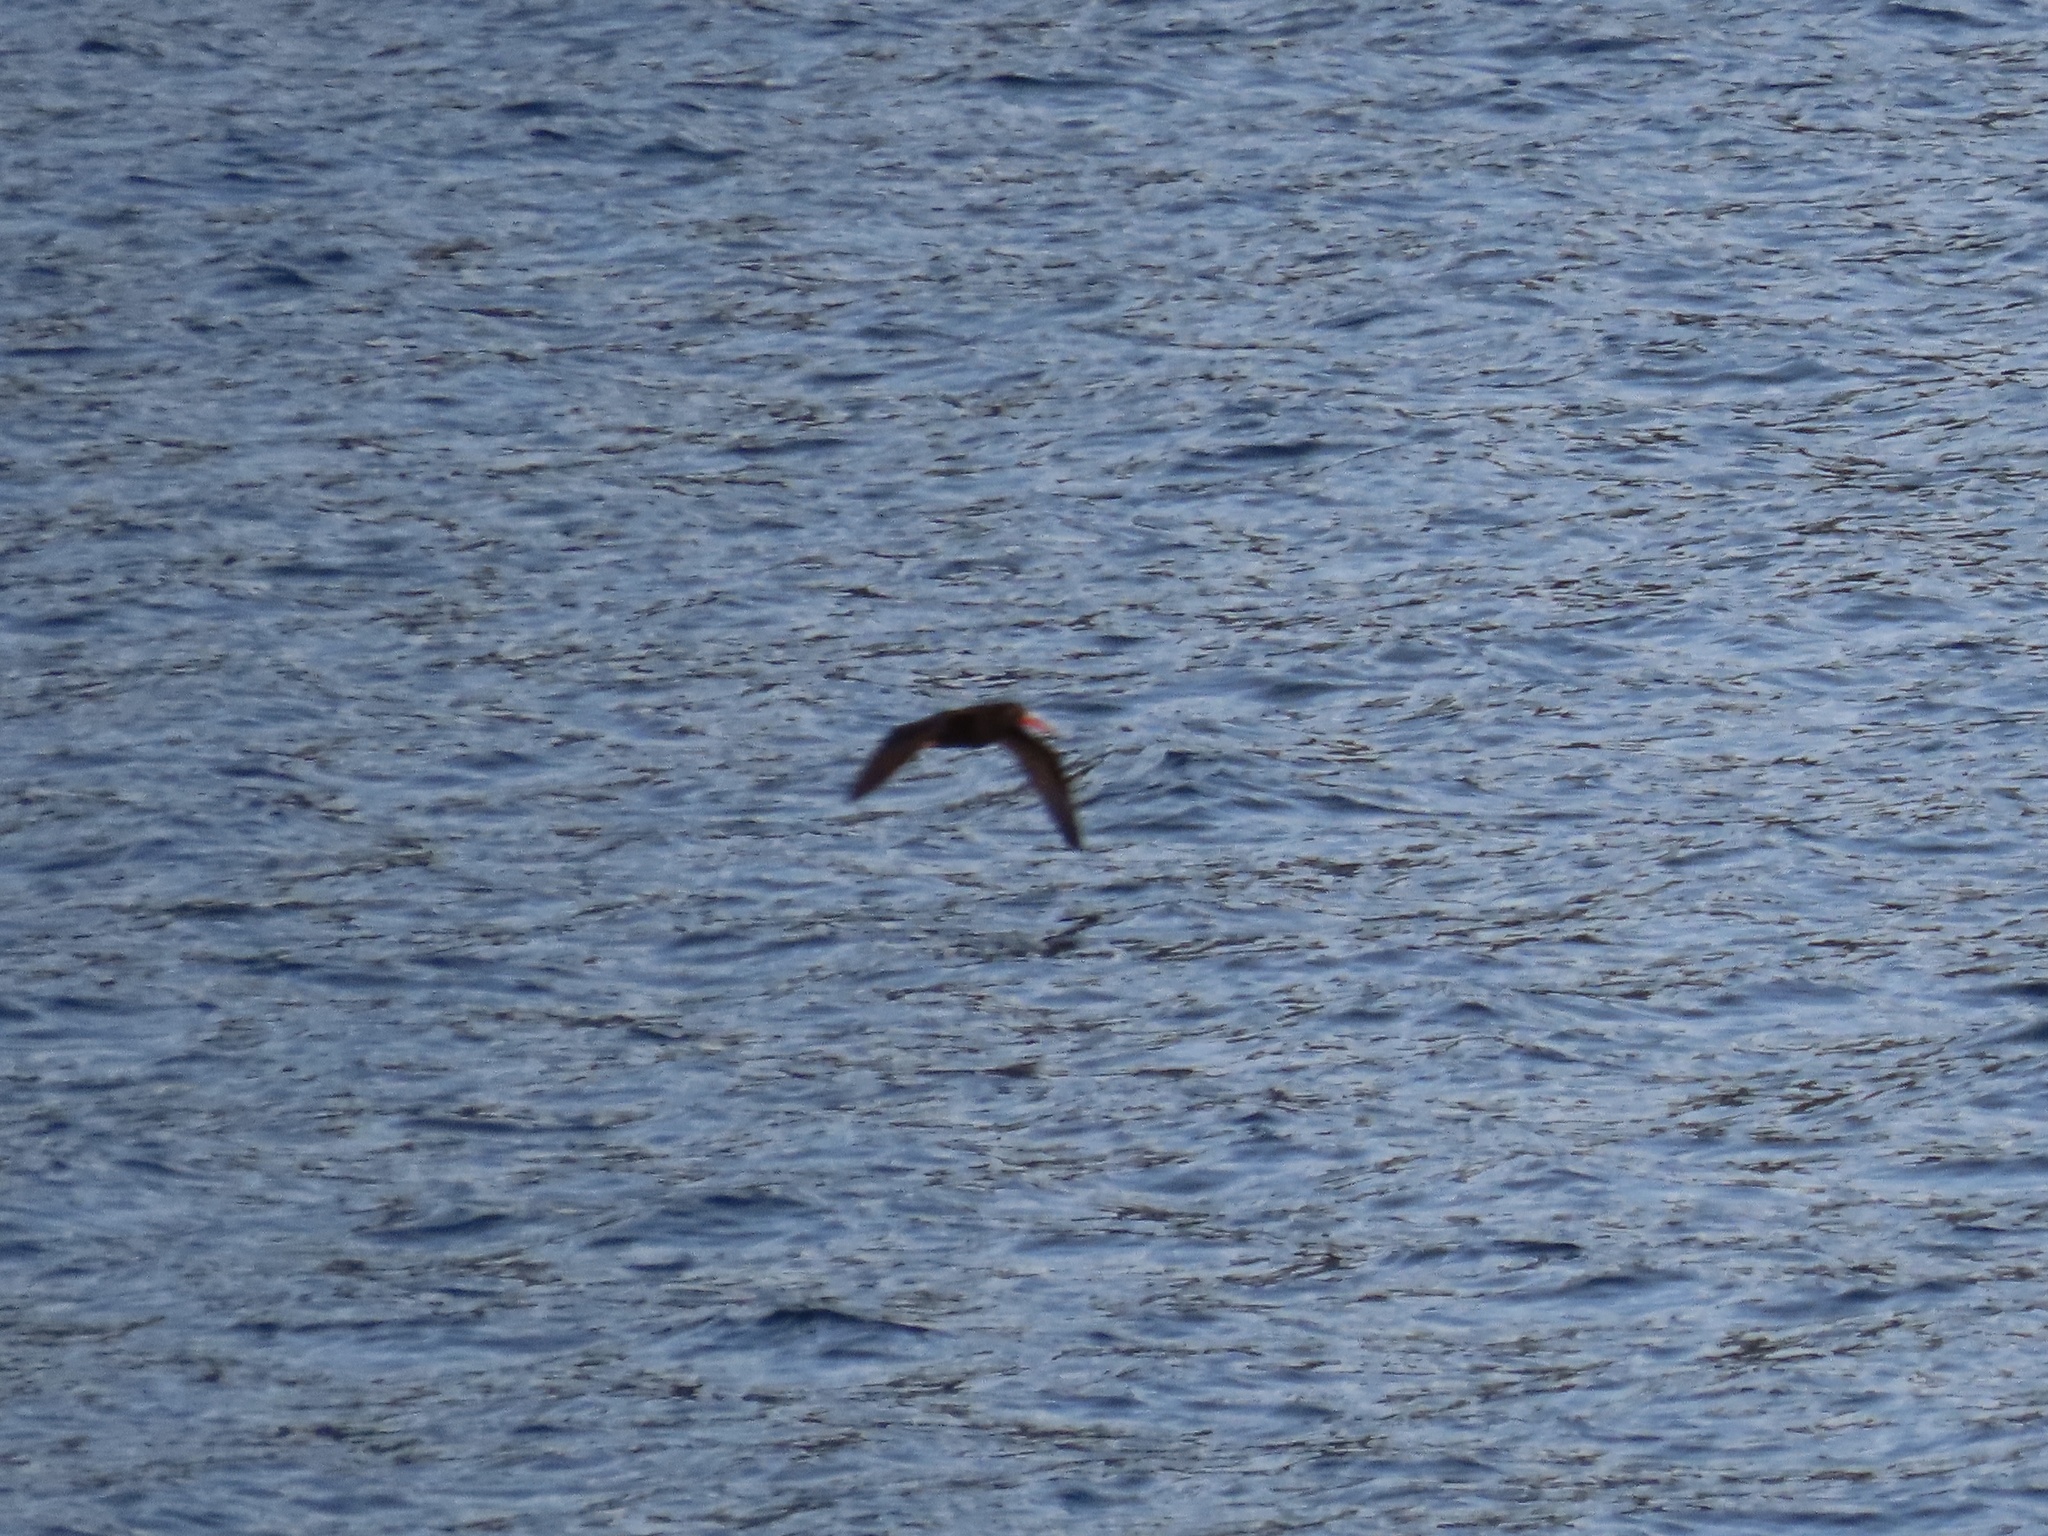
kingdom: Animalia
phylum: Chordata
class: Aves
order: Charadriiformes
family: Haematopodidae
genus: Haematopus
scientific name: Haematopus bachmani
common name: Black oystercatcher
